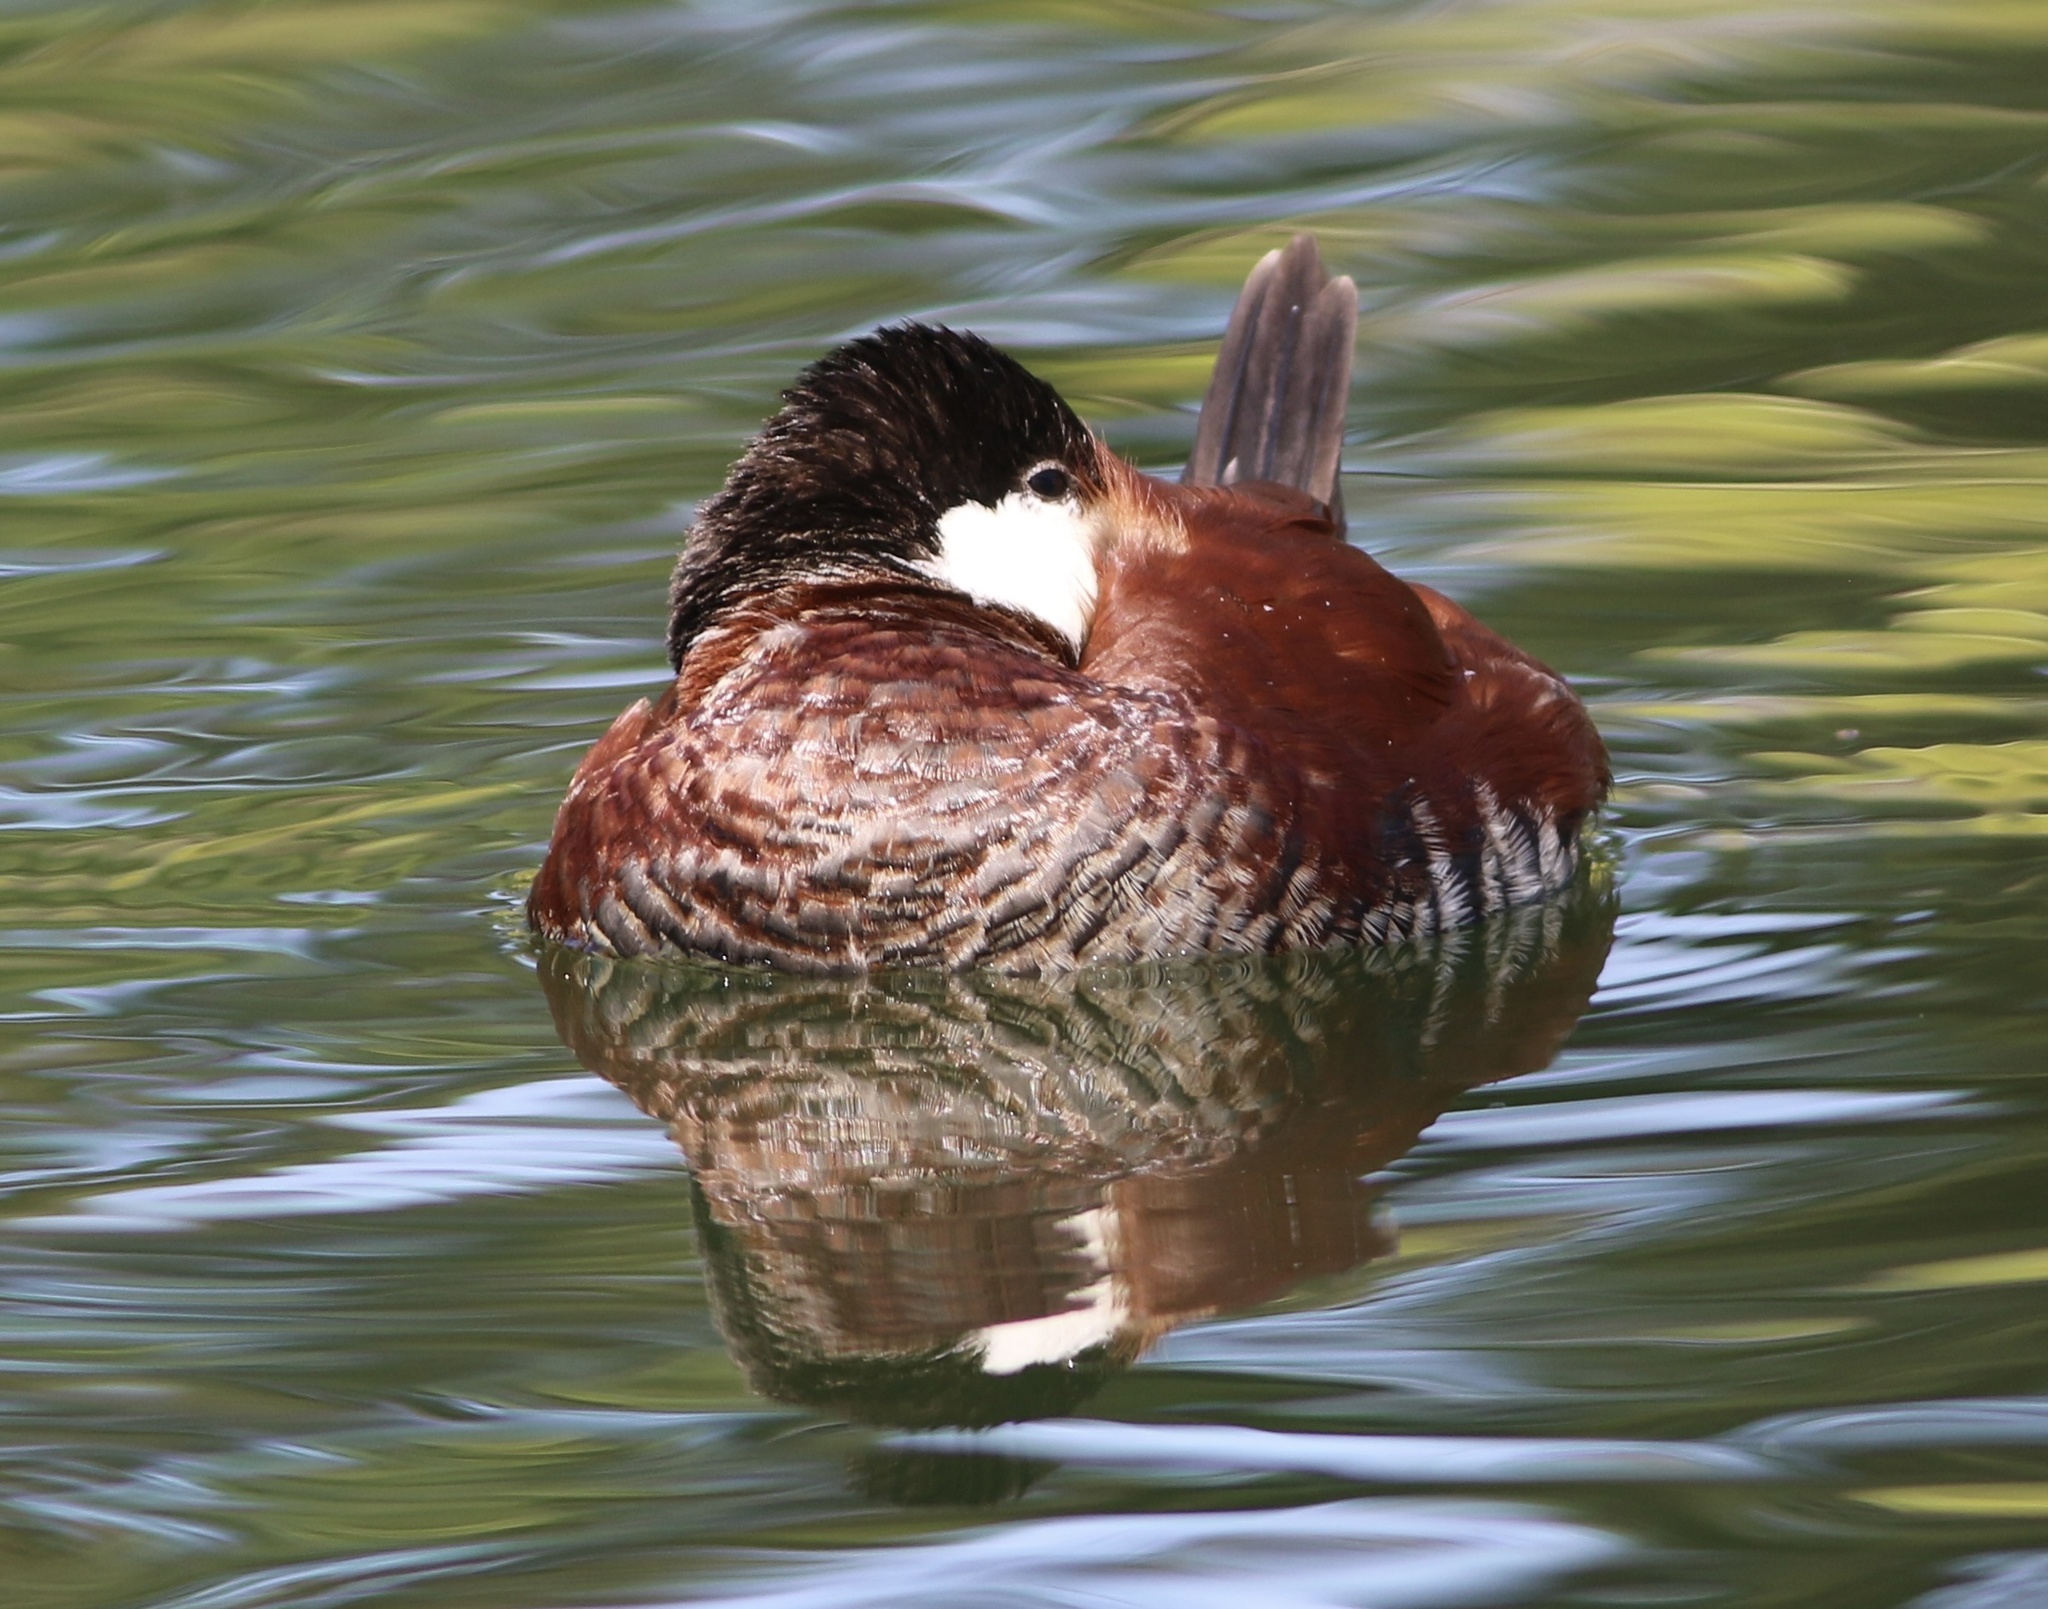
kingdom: Animalia
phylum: Chordata
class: Aves
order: Anseriformes
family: Anatidae
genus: Oxyura
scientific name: Oxyura jamaicensis
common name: Ruddy duck
